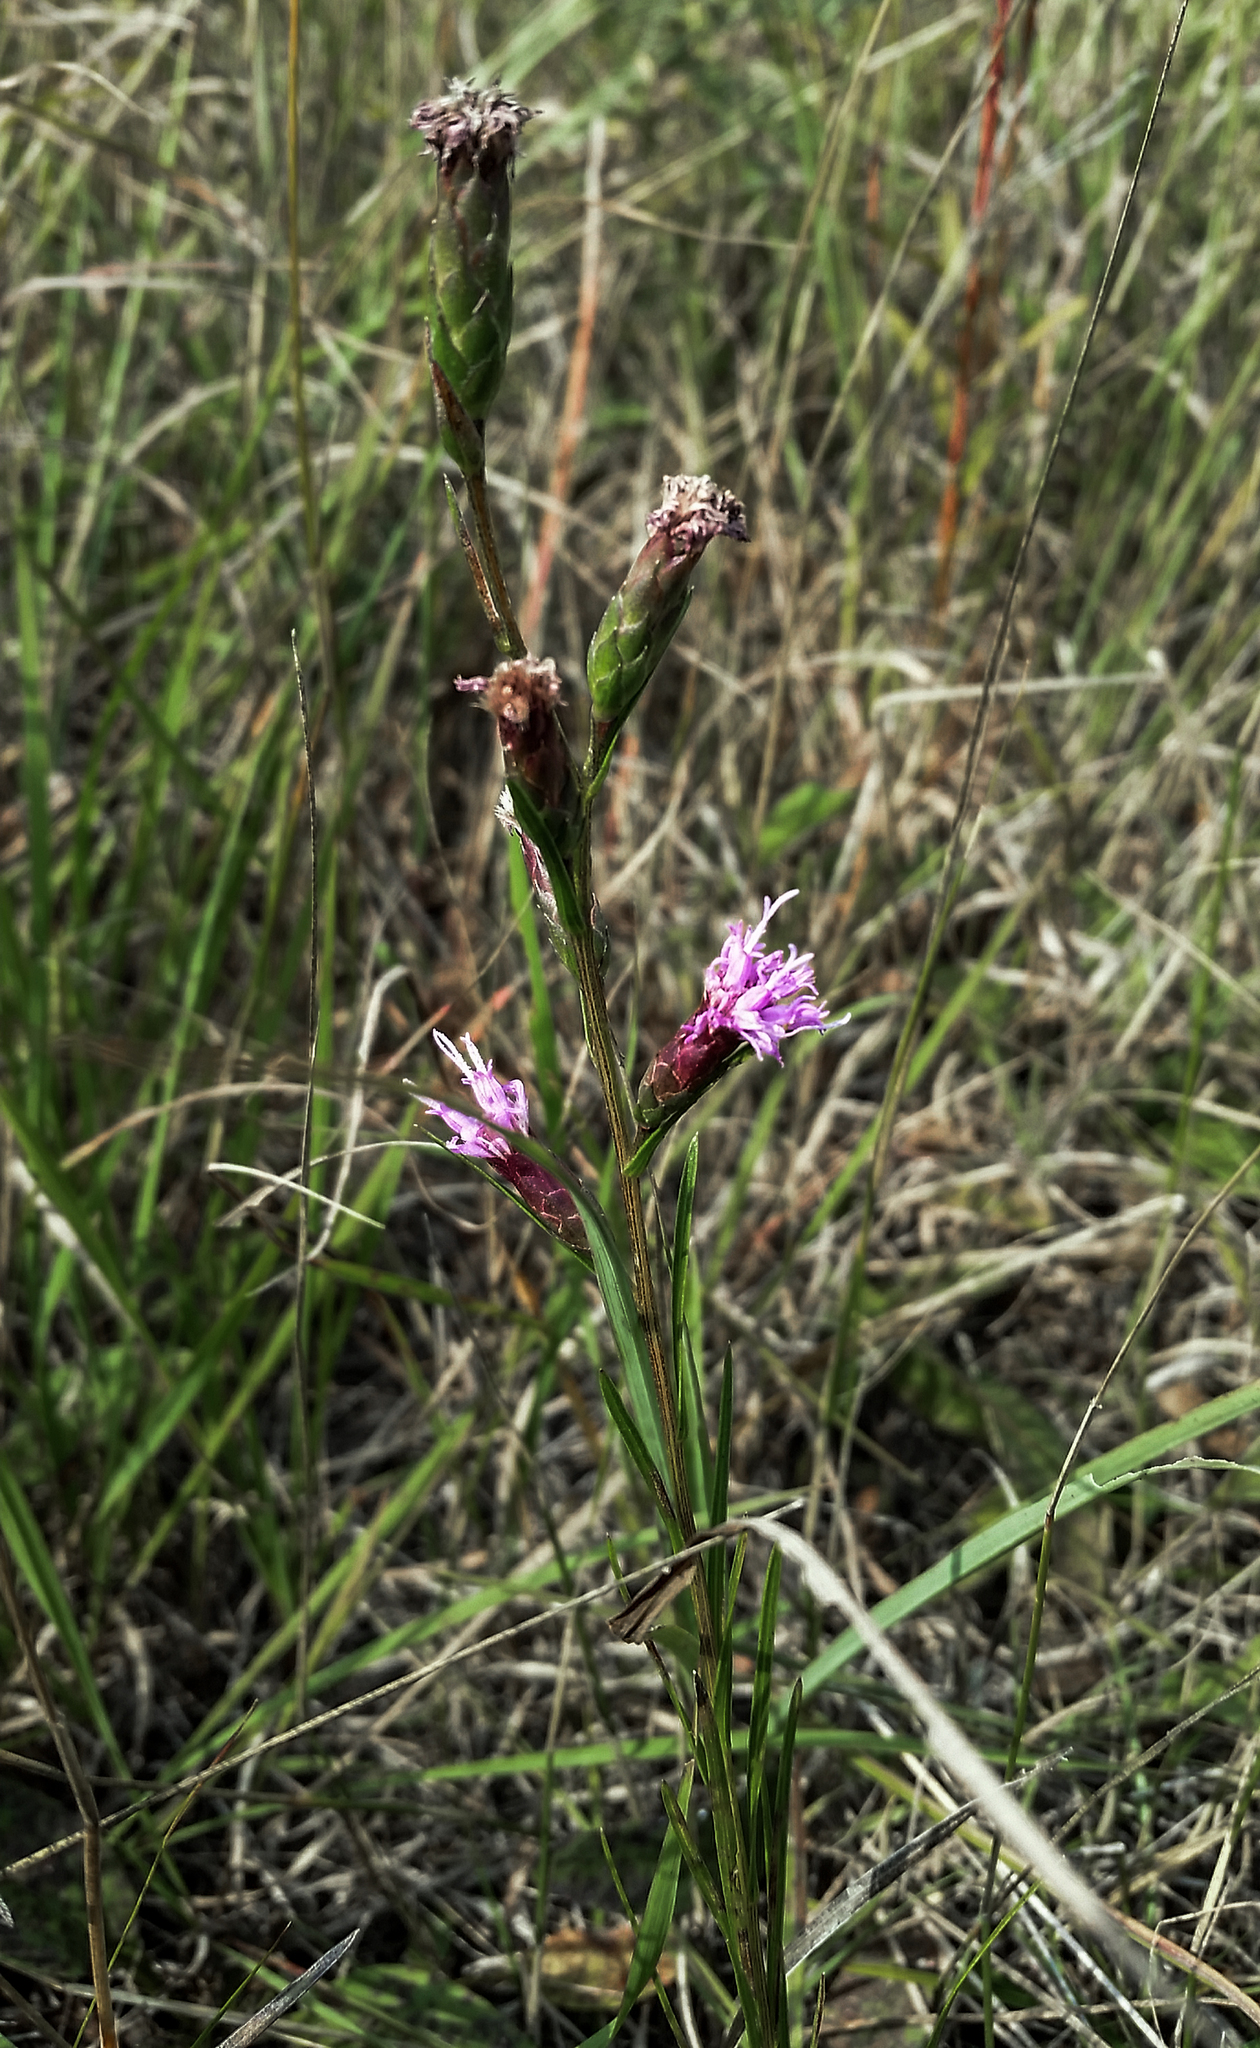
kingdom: Plantae
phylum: Tracheophyta
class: Magnoliopsida
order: Asterales
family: Asteraceae
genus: Liatris
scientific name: Liatris cylindracea
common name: Few-head blazingstar
